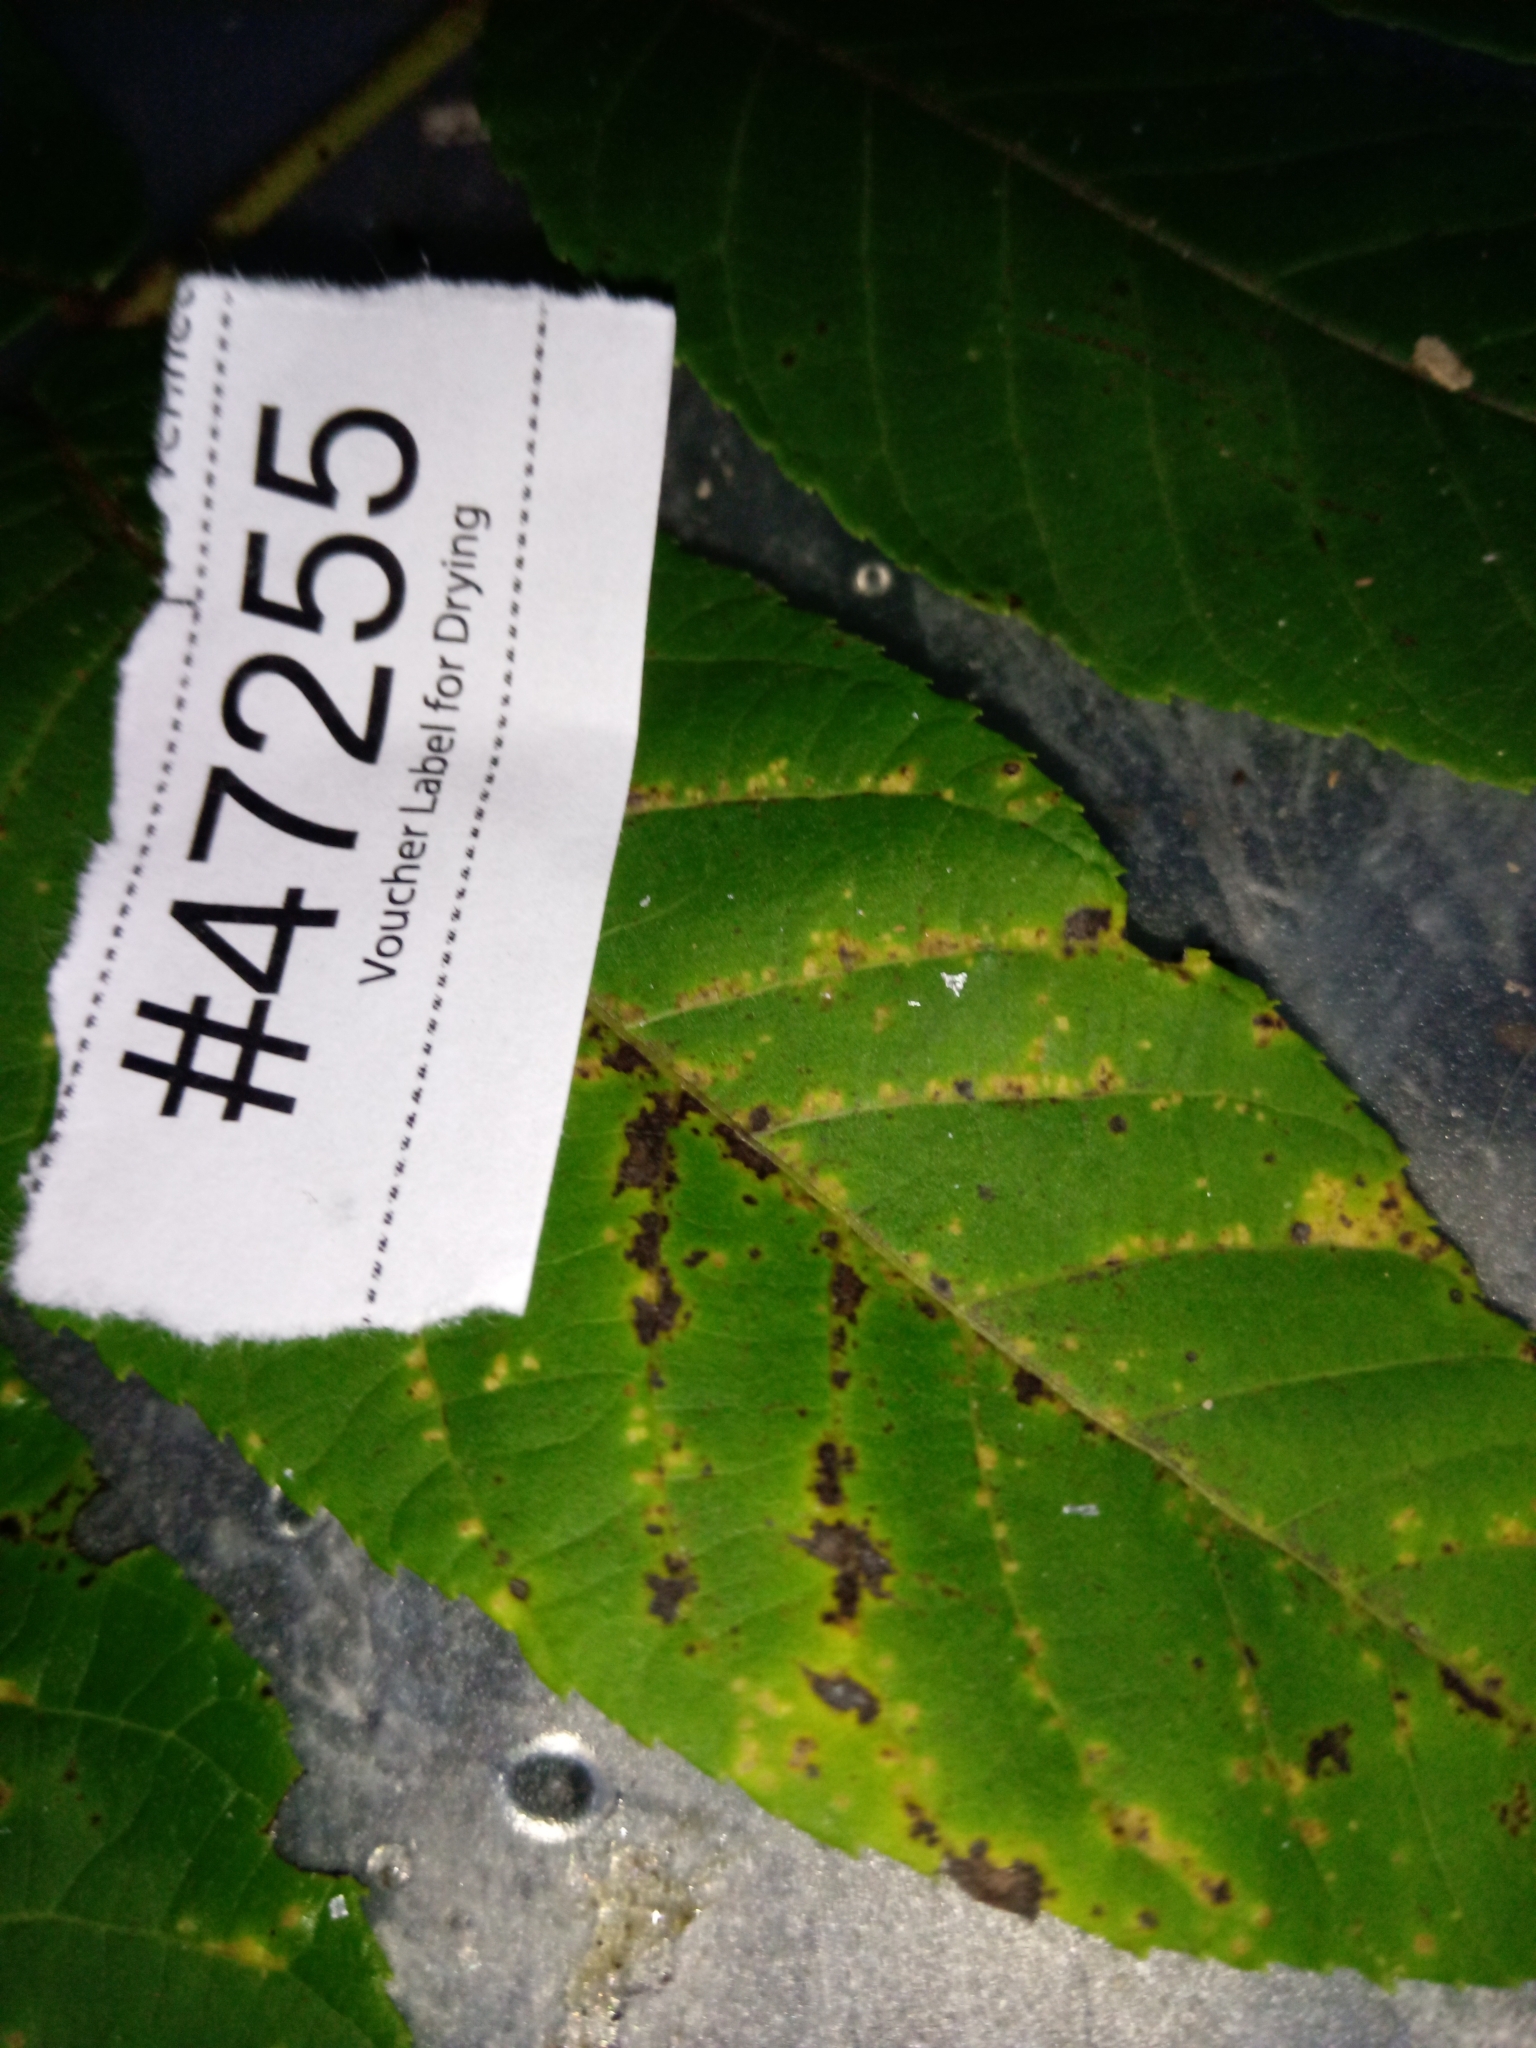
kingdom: Fungi
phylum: Ascomycota
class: Sordariomycetes
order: Diaporthales
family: Gnomoniaceae
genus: Ophiognomonia
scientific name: Ophiognomonia leptostyla
